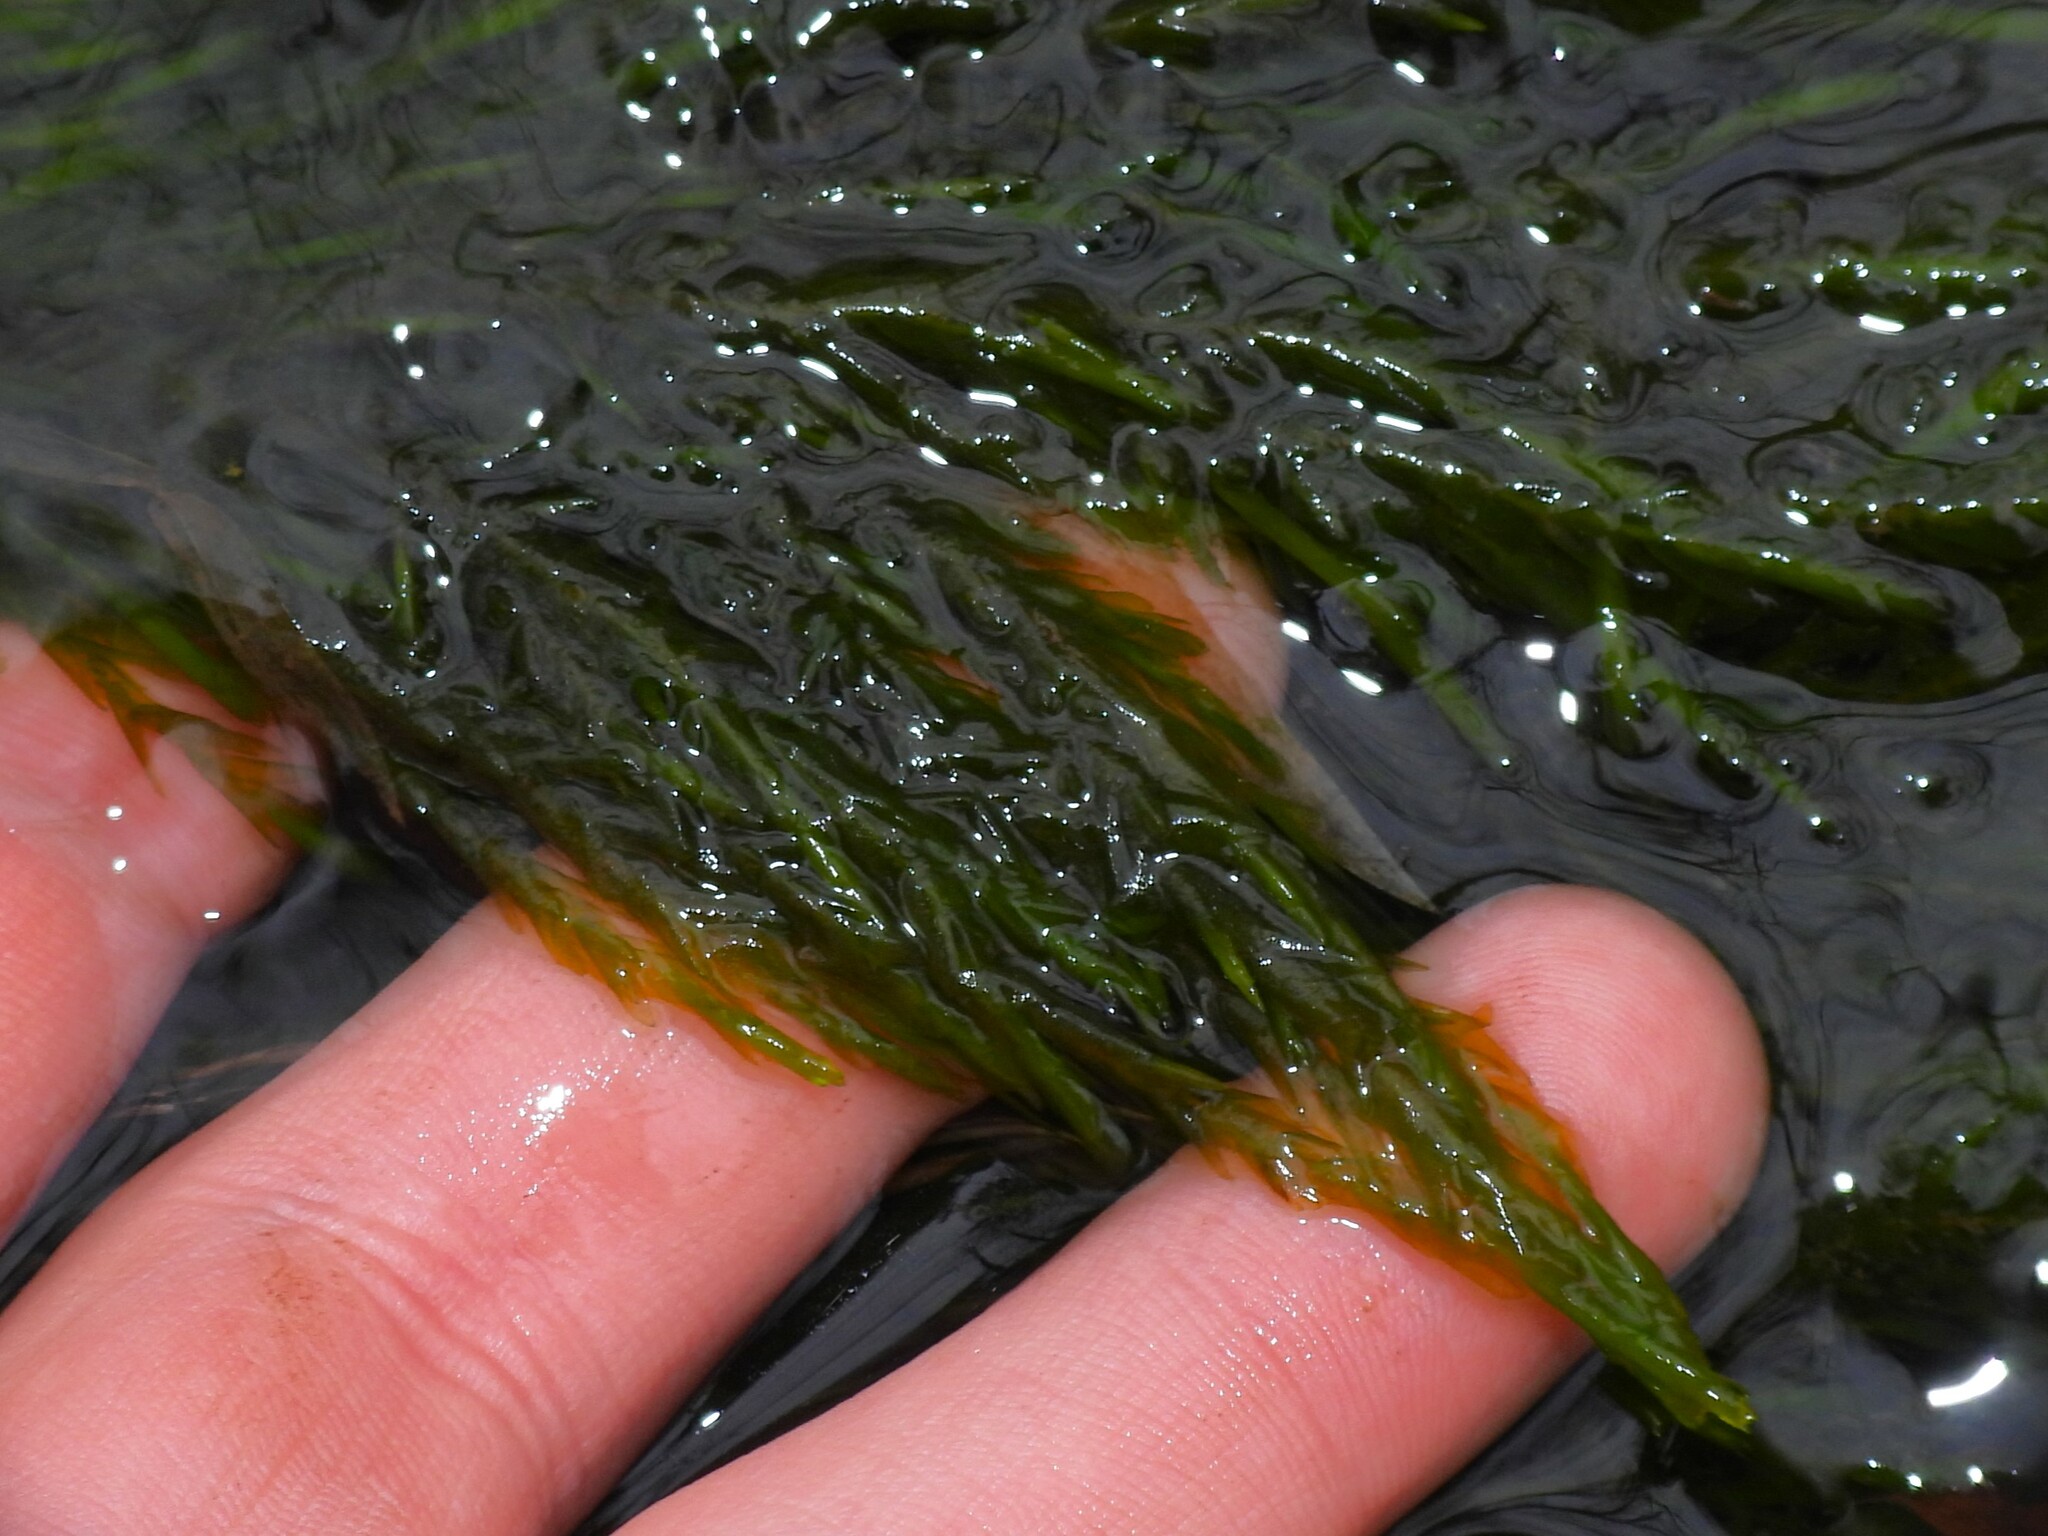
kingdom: Plantae
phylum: Bryophyta
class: Bryopsida
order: Hypnales
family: Fontinalaceae
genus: Fontinalis
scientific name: Fontinalis hypnoides
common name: River moss
